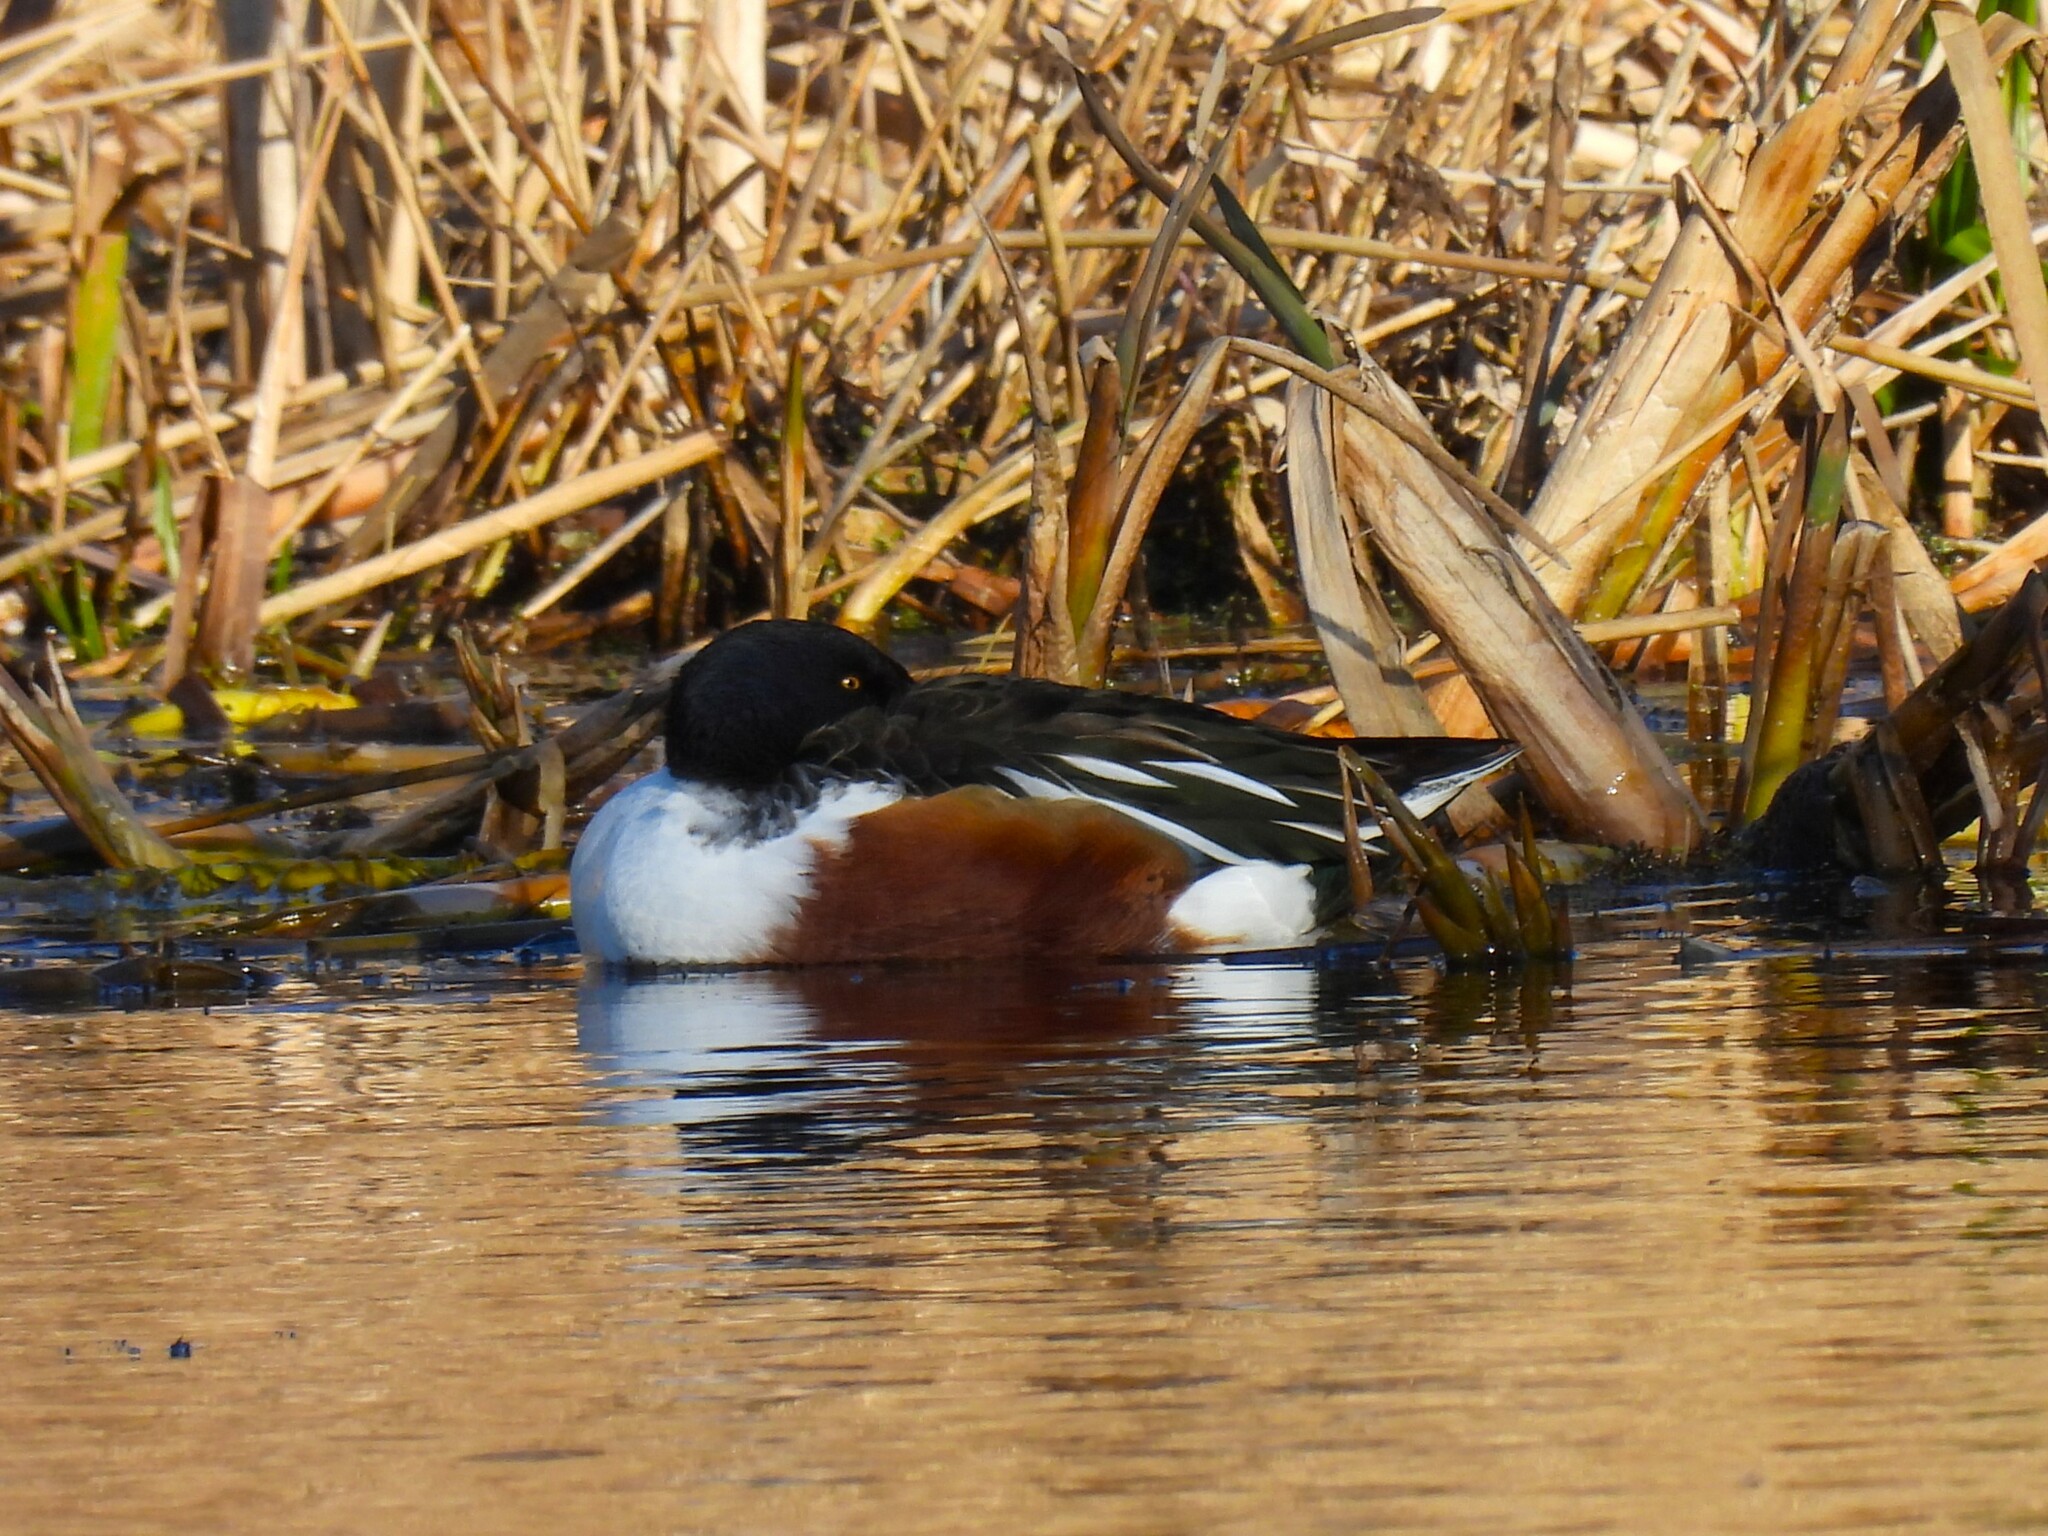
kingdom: Animalia
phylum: Chordata
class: Aves
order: Anseriformes
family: Anatidae
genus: Spatula
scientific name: Spatula clypeata
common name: Northern shoveler
